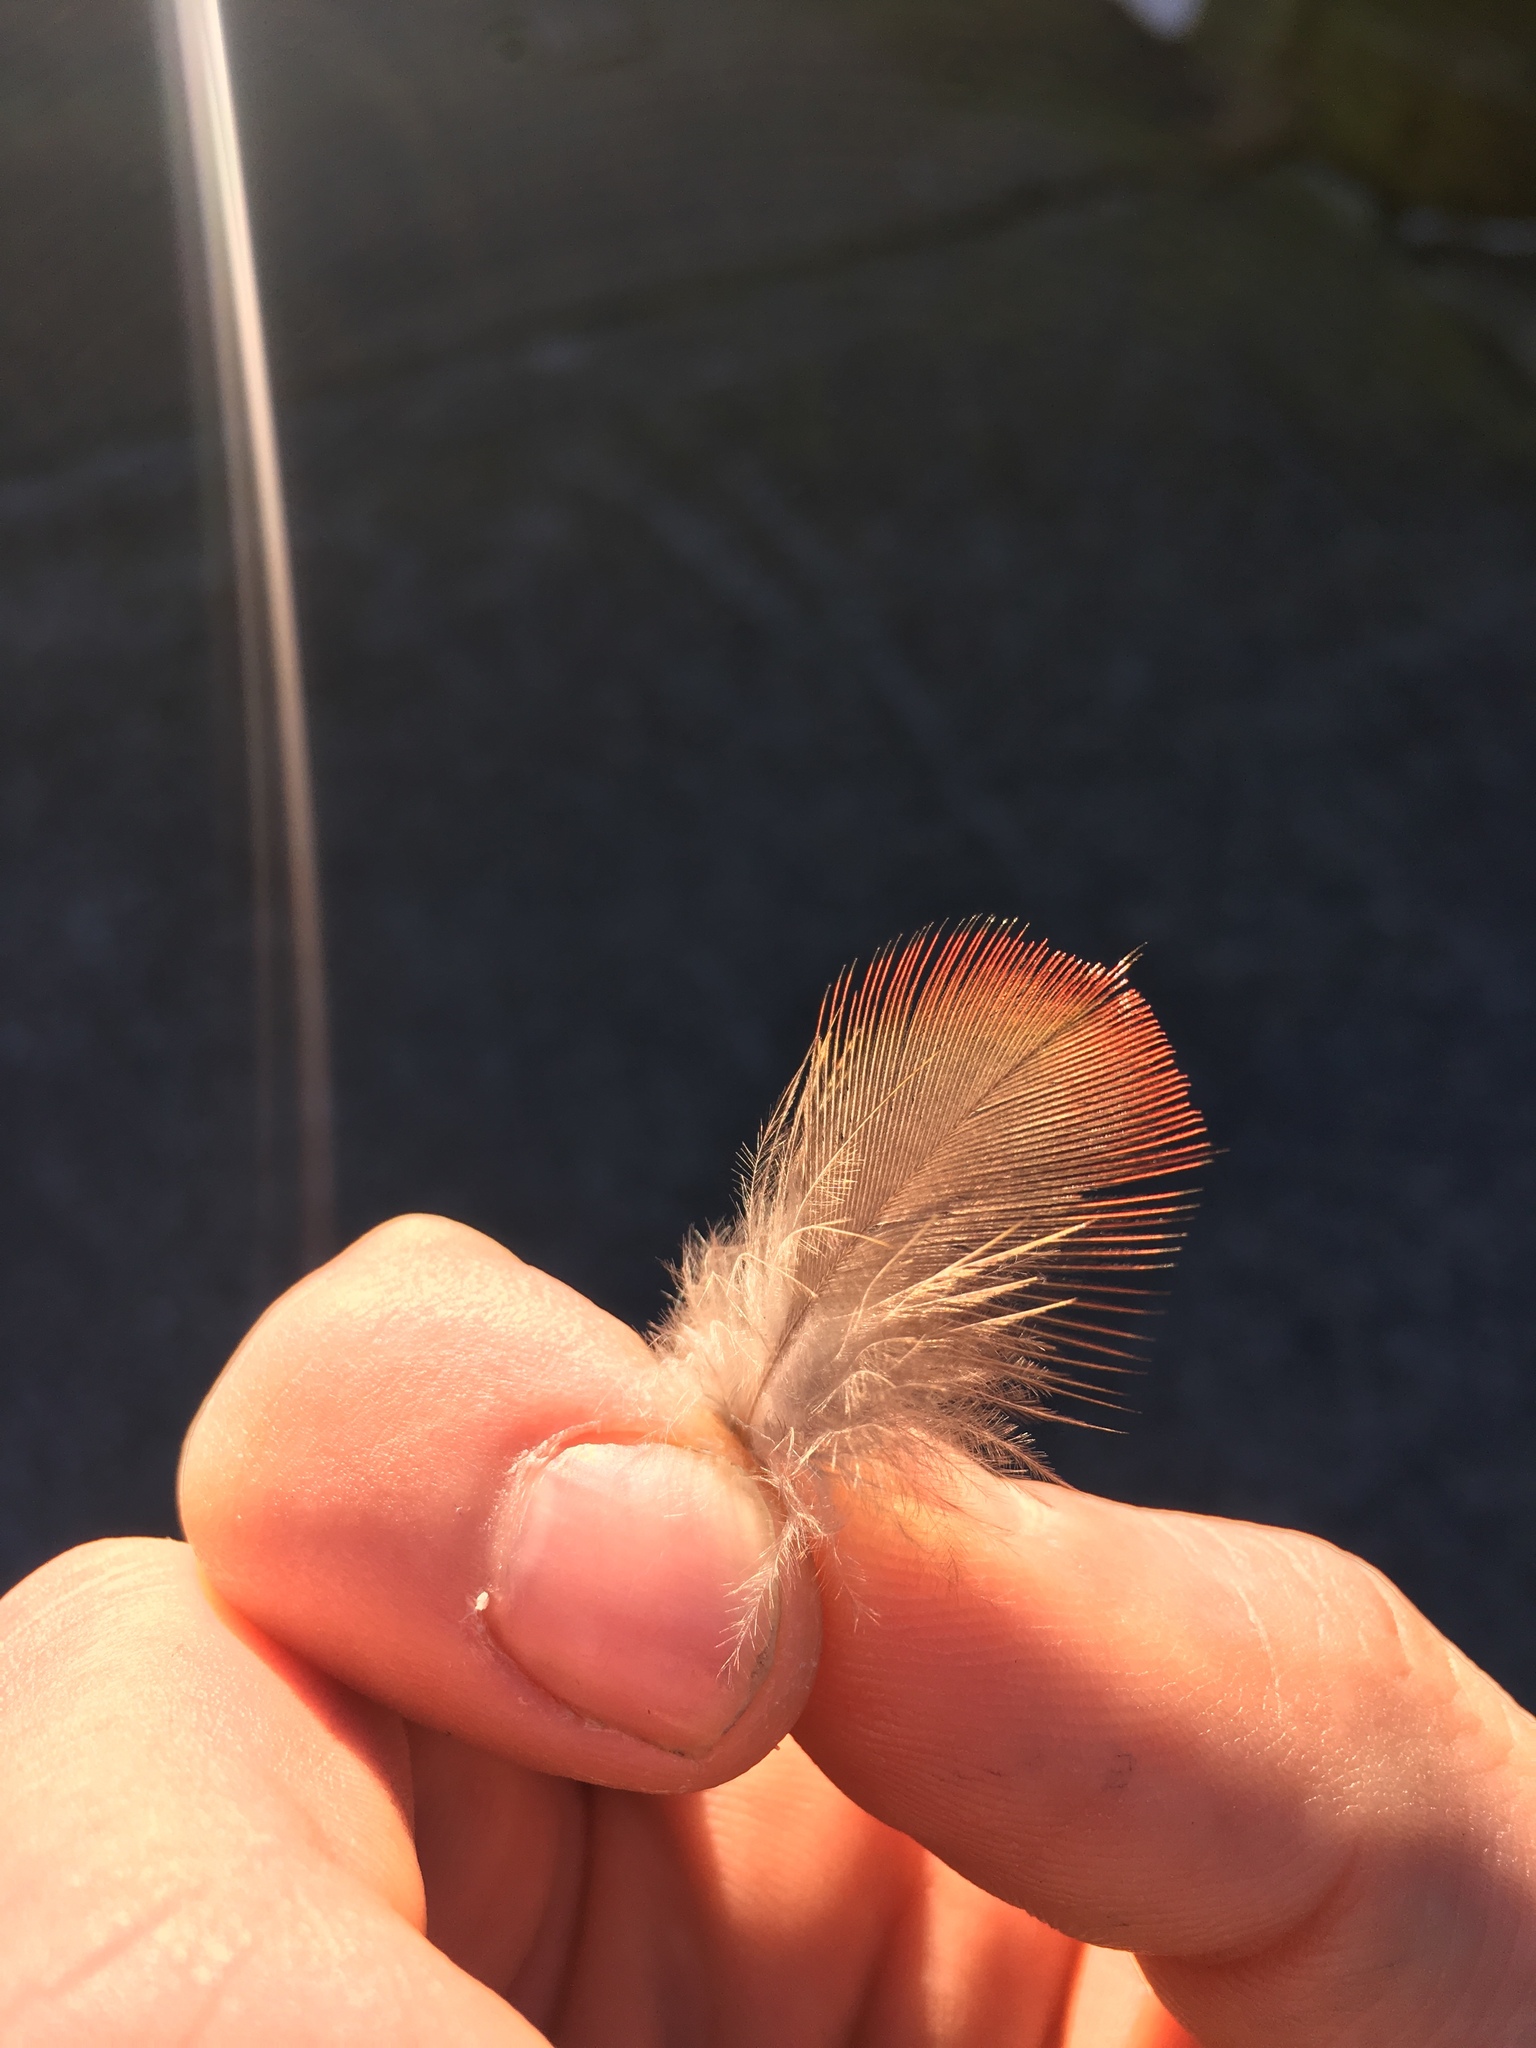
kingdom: Animalia
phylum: Chordata
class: Aves
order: Psittaciformes
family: Psittacidae
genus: Nestor
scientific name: Nestor meridionalis
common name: New zealand kaka
